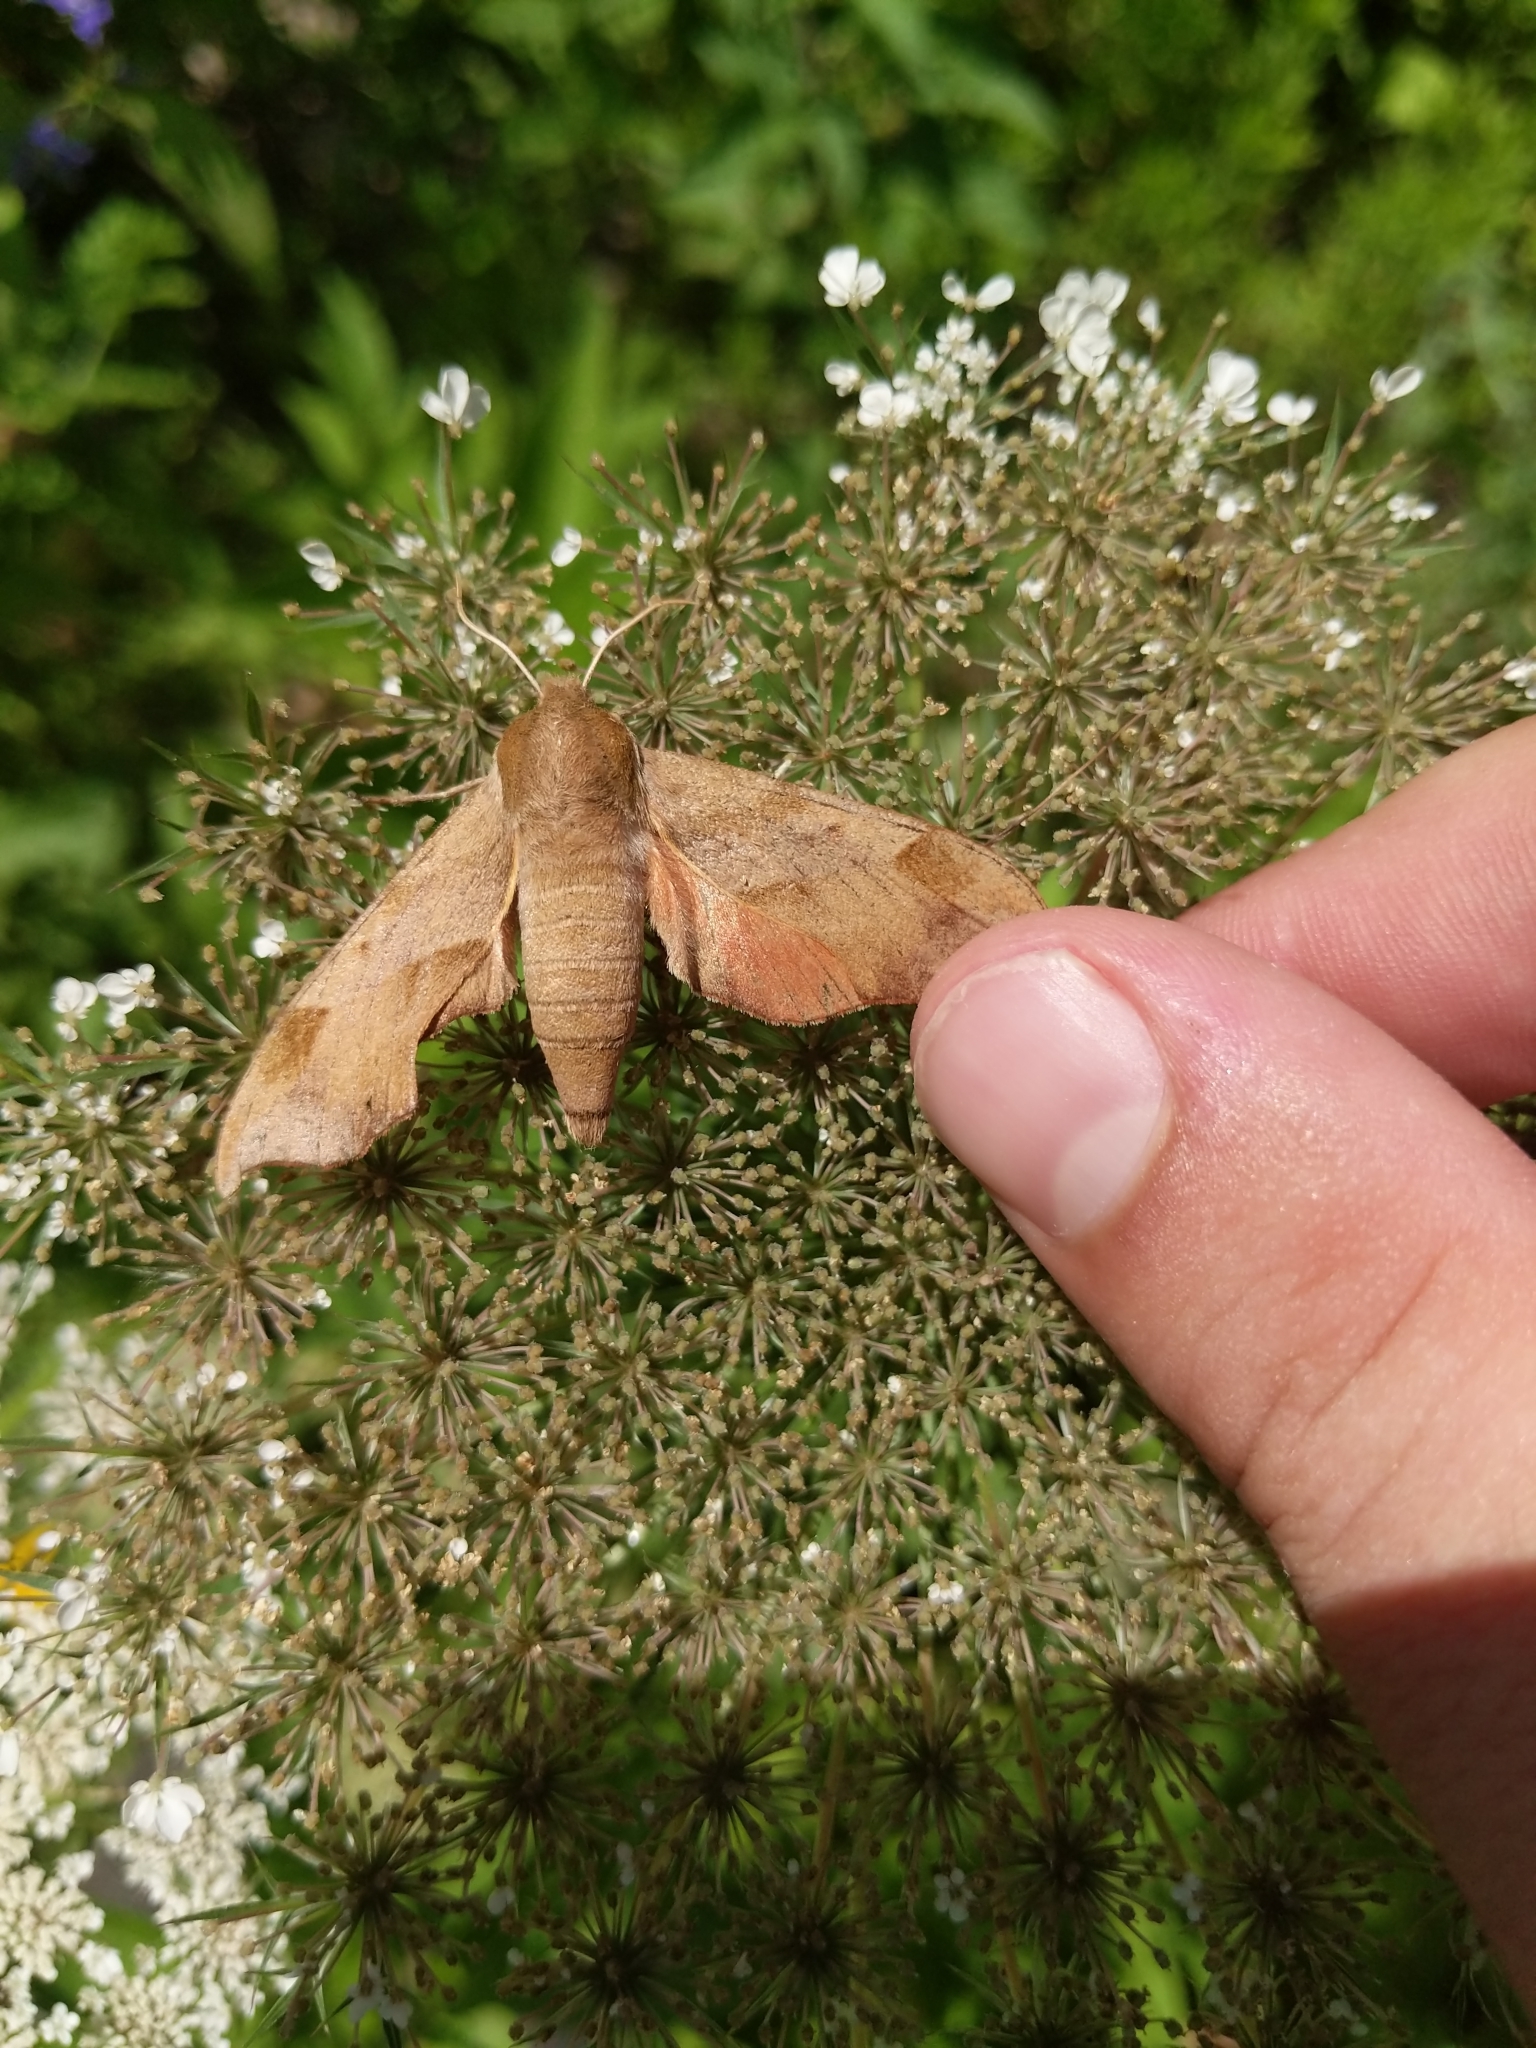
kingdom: Animalia
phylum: Arthropoda
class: Insecta
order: Lepidoptera
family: Sphingidae
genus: Darapsa
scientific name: Darapsa myron
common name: Hog sphinx
